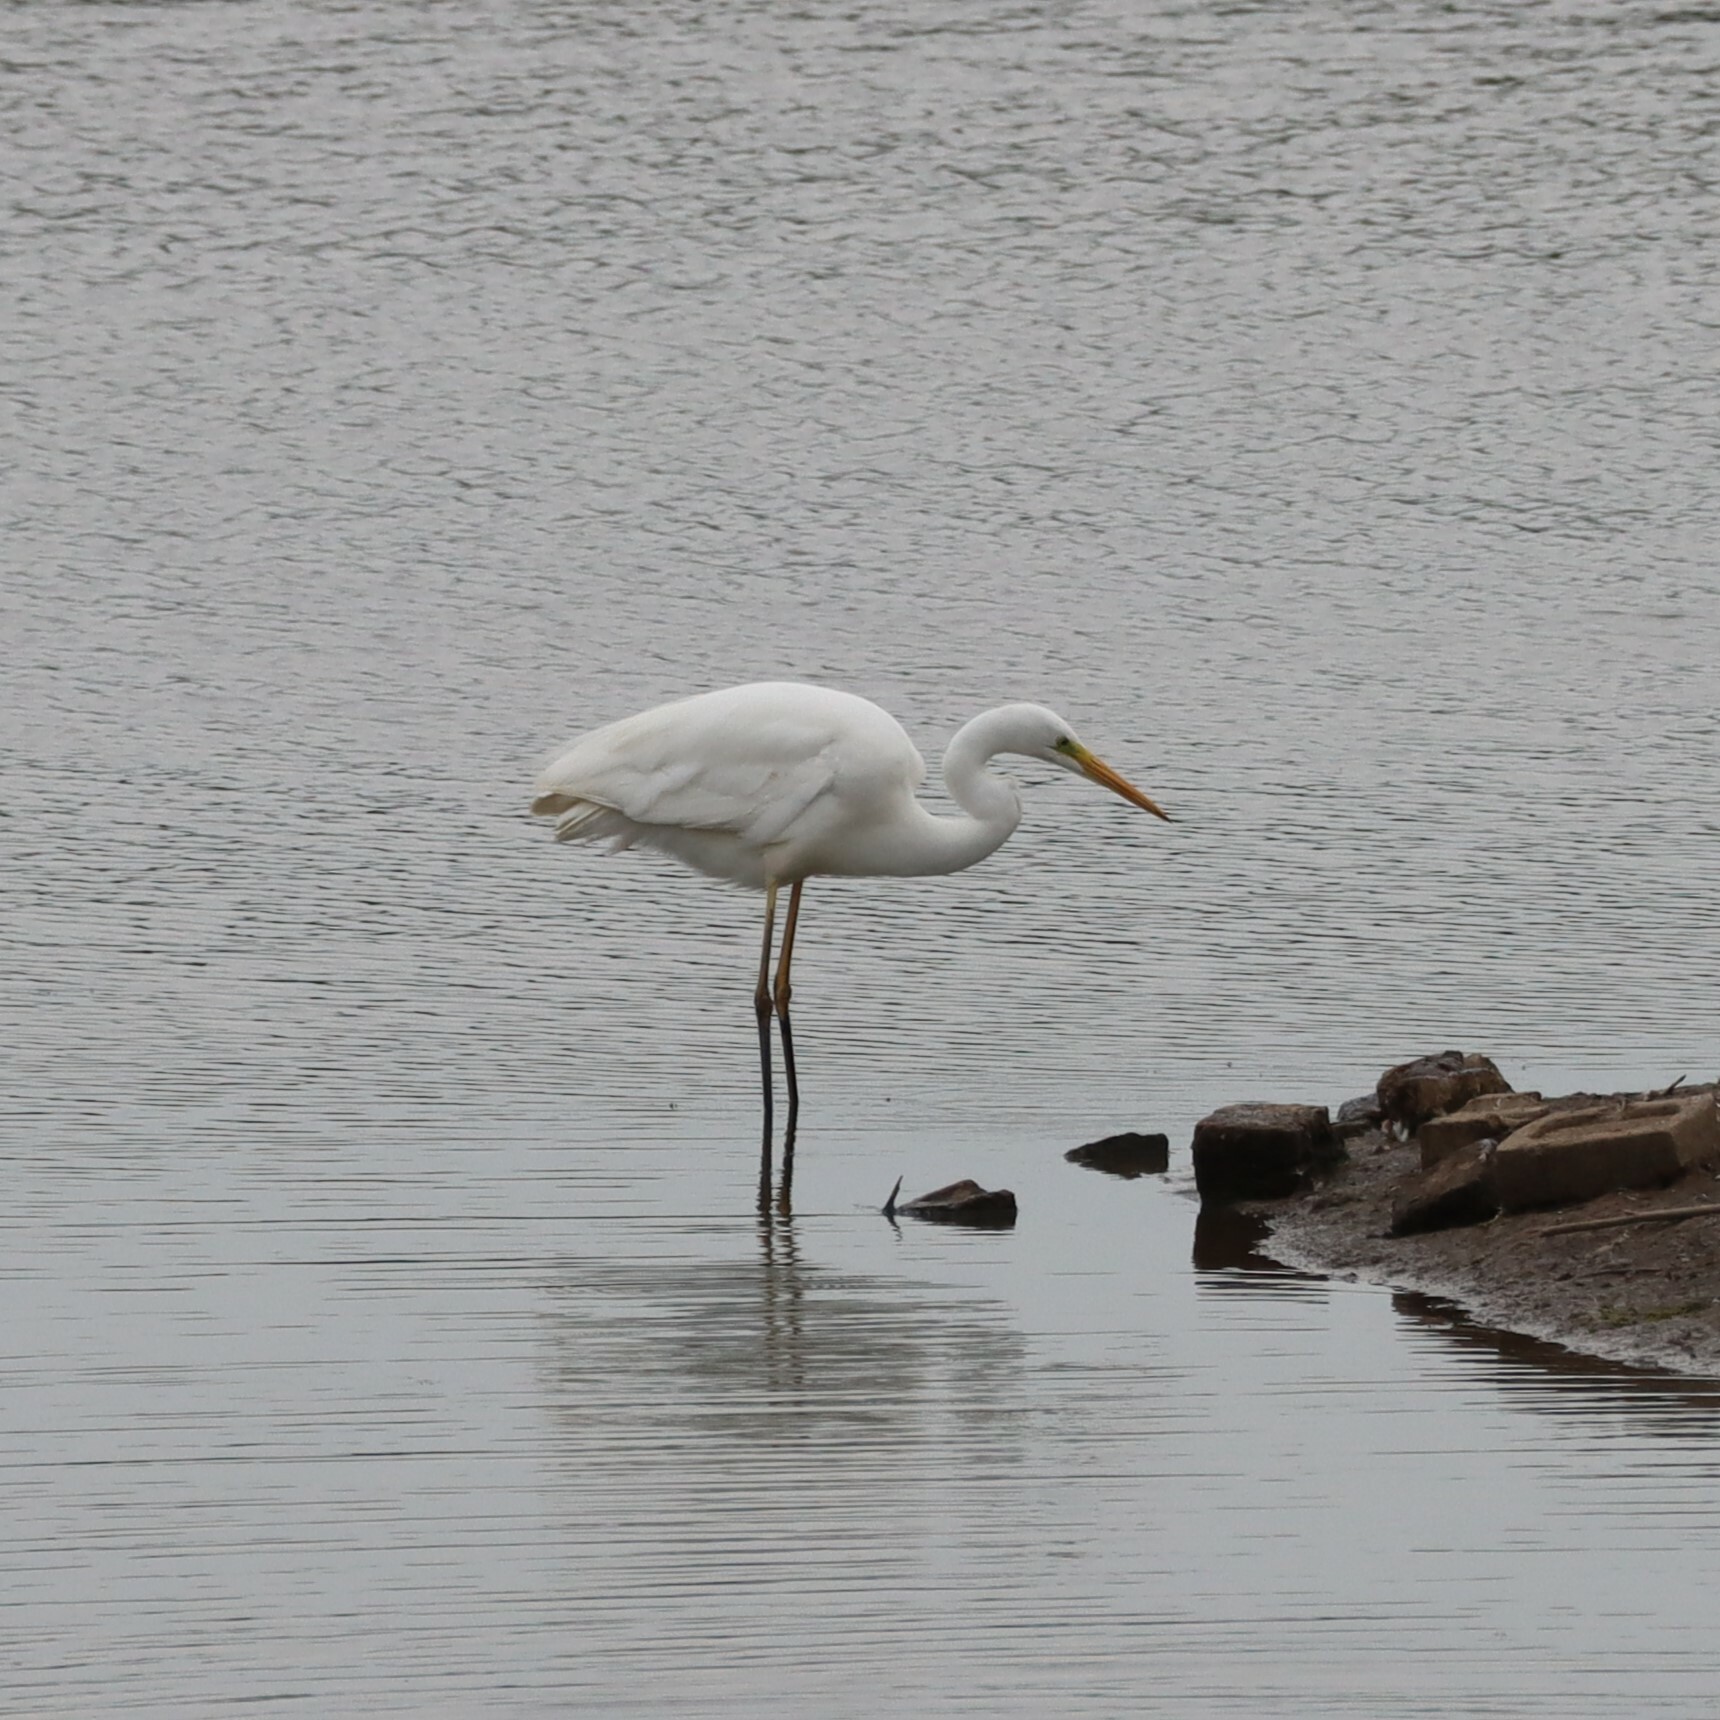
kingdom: Animalia
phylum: Chordata
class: Aves
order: Pelecaniformes
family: Ardeidae
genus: Ardea
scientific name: Ardea alba
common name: Great egret
